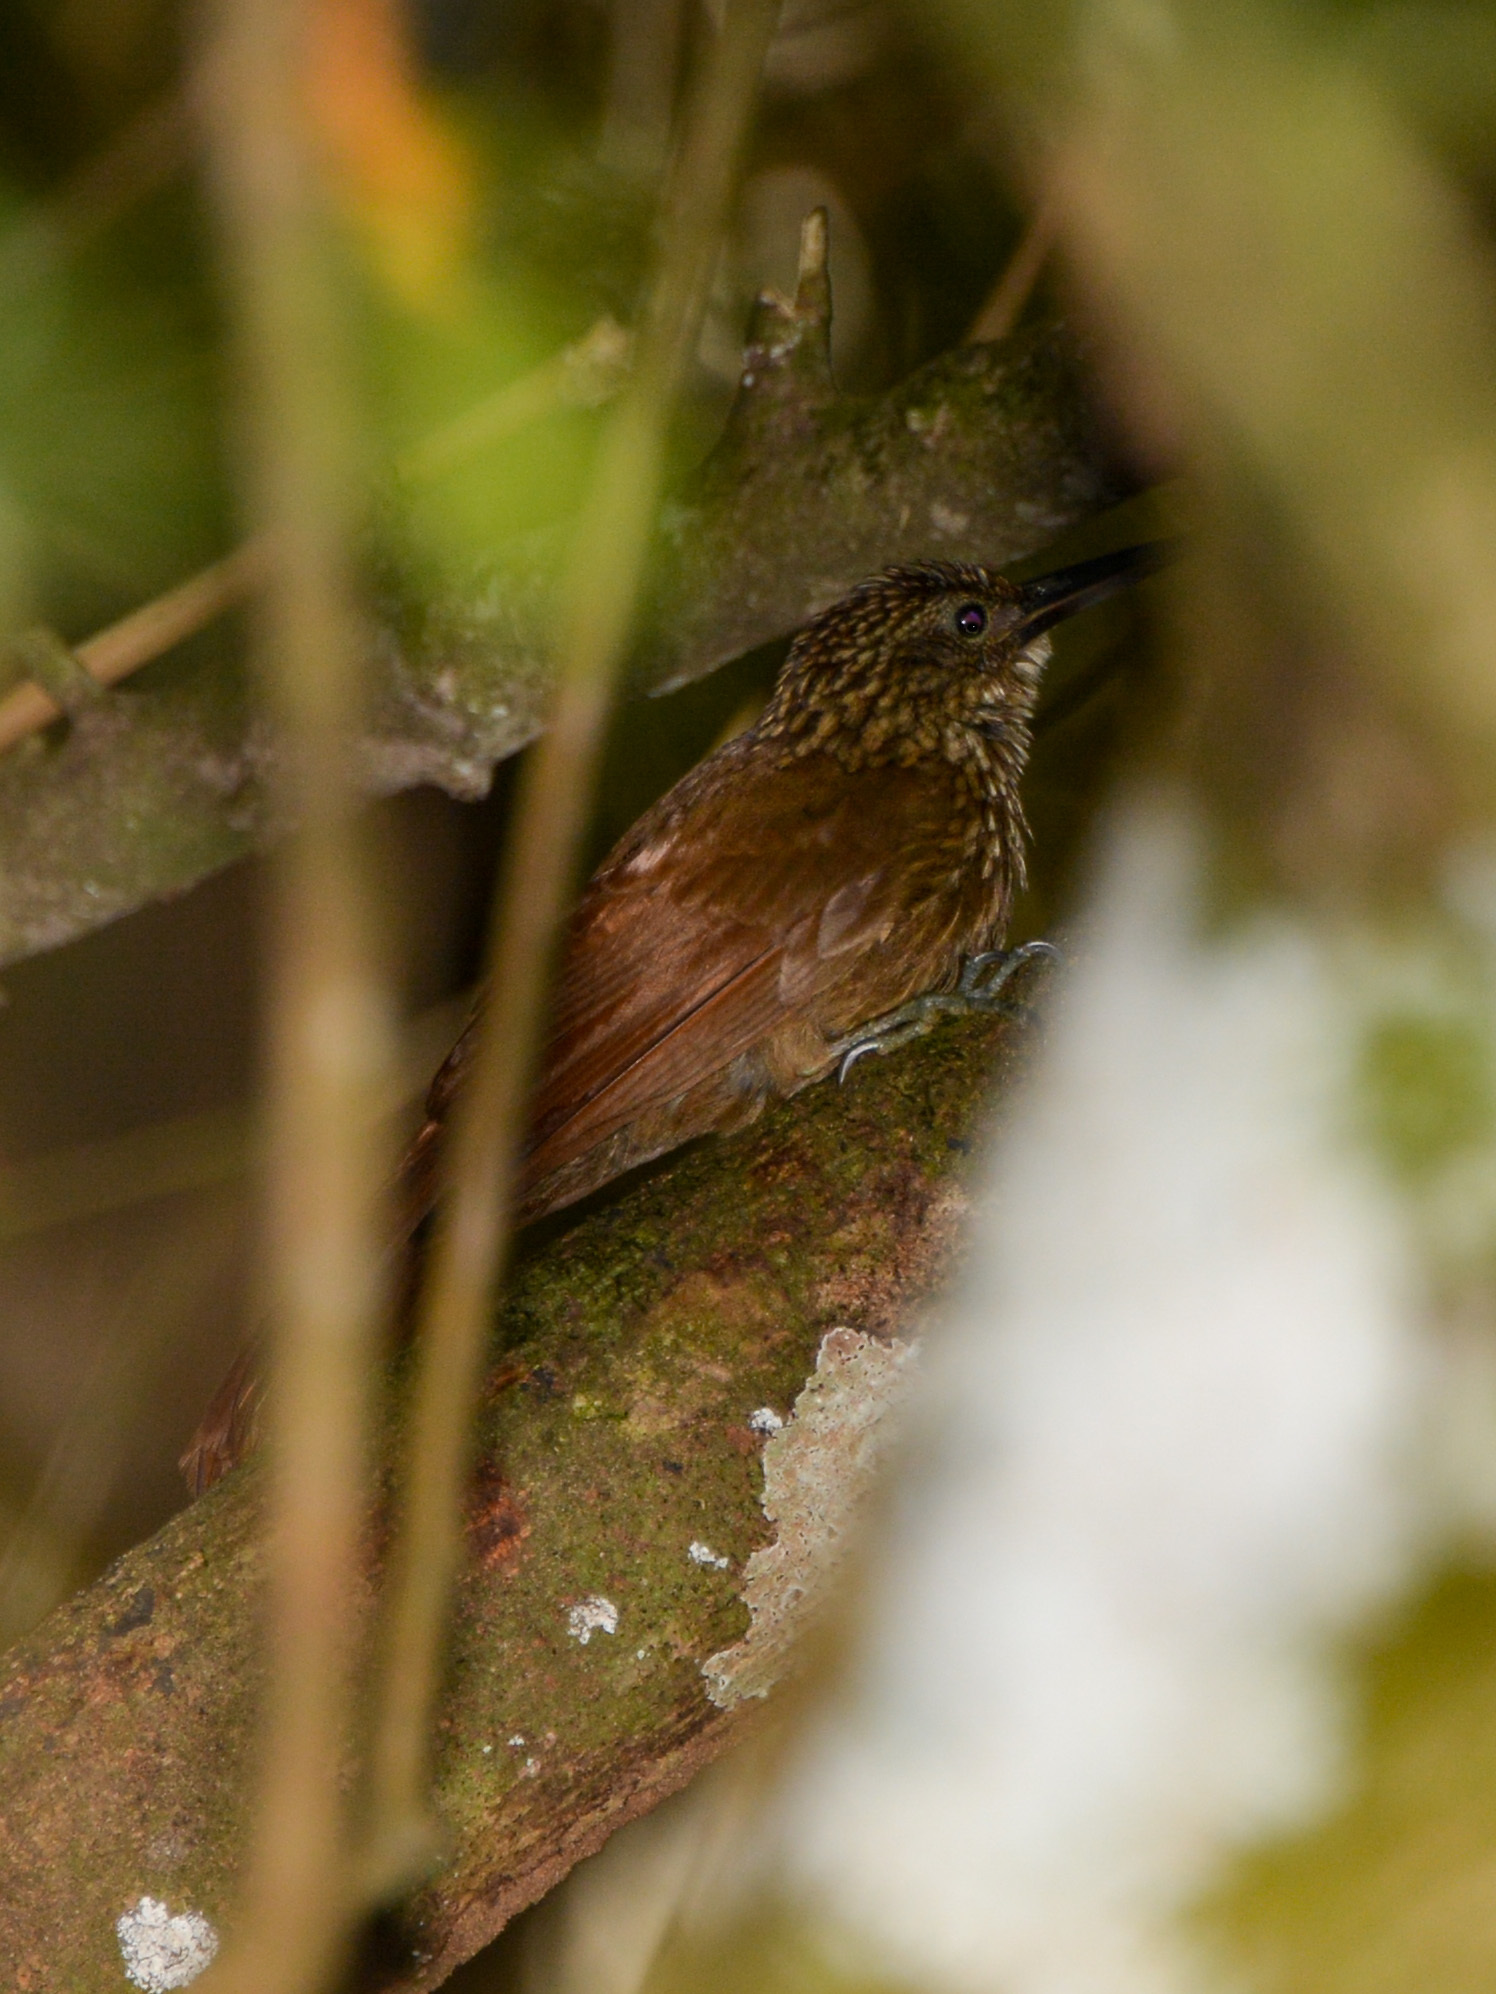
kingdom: Animalia
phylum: Chordata
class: Aves
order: Passeriformes
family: Furnariidae
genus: Xiphorhynchus
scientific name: Xiphorhynchus susurrans
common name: Cocoa woodcreeper
